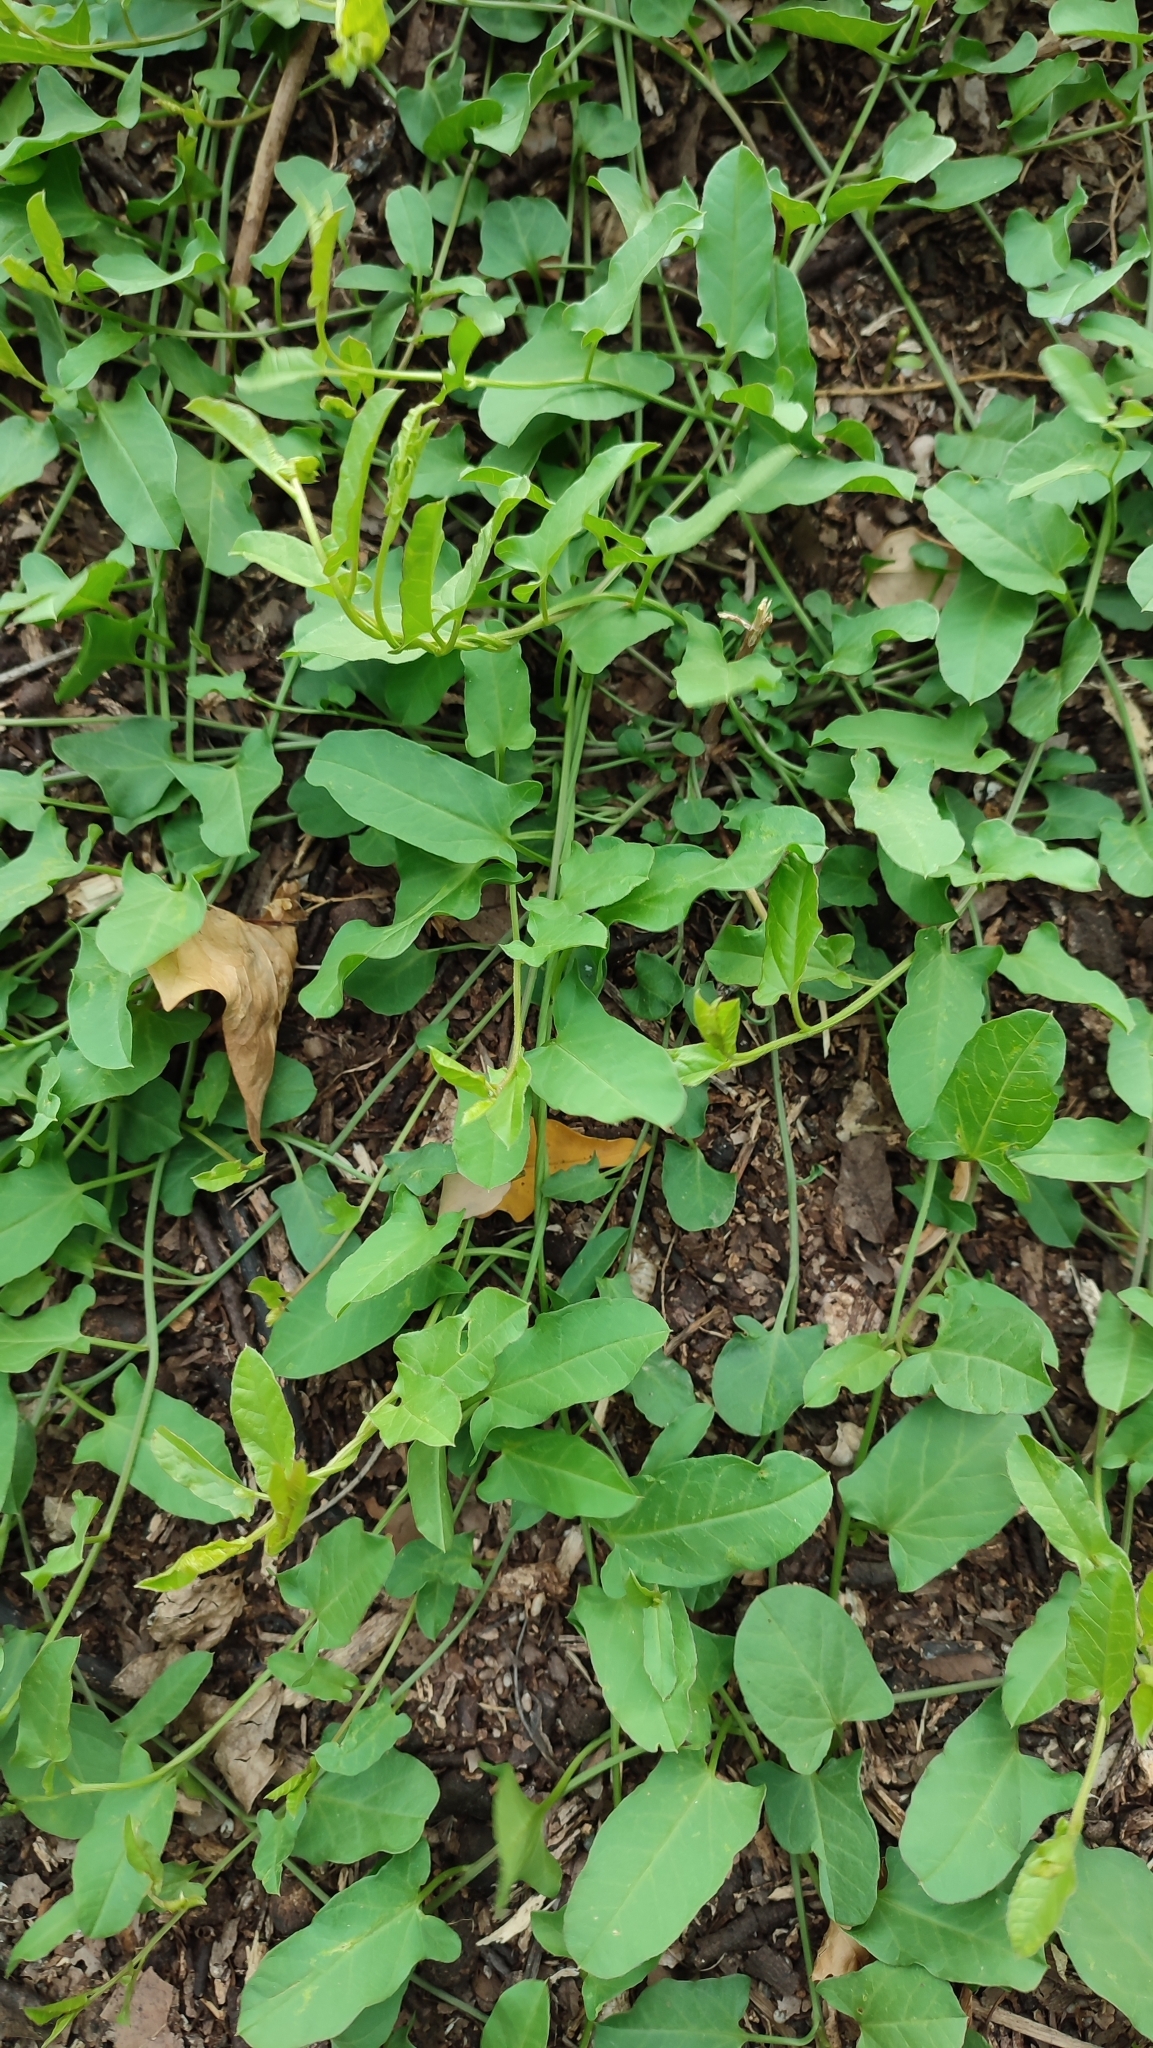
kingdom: Plantae
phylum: Tracheophyta
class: Magnoliopsida
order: Solanales
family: Convolvulaceae
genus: Convolvulus
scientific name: Convolvulus arvensis
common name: Field bindweed
